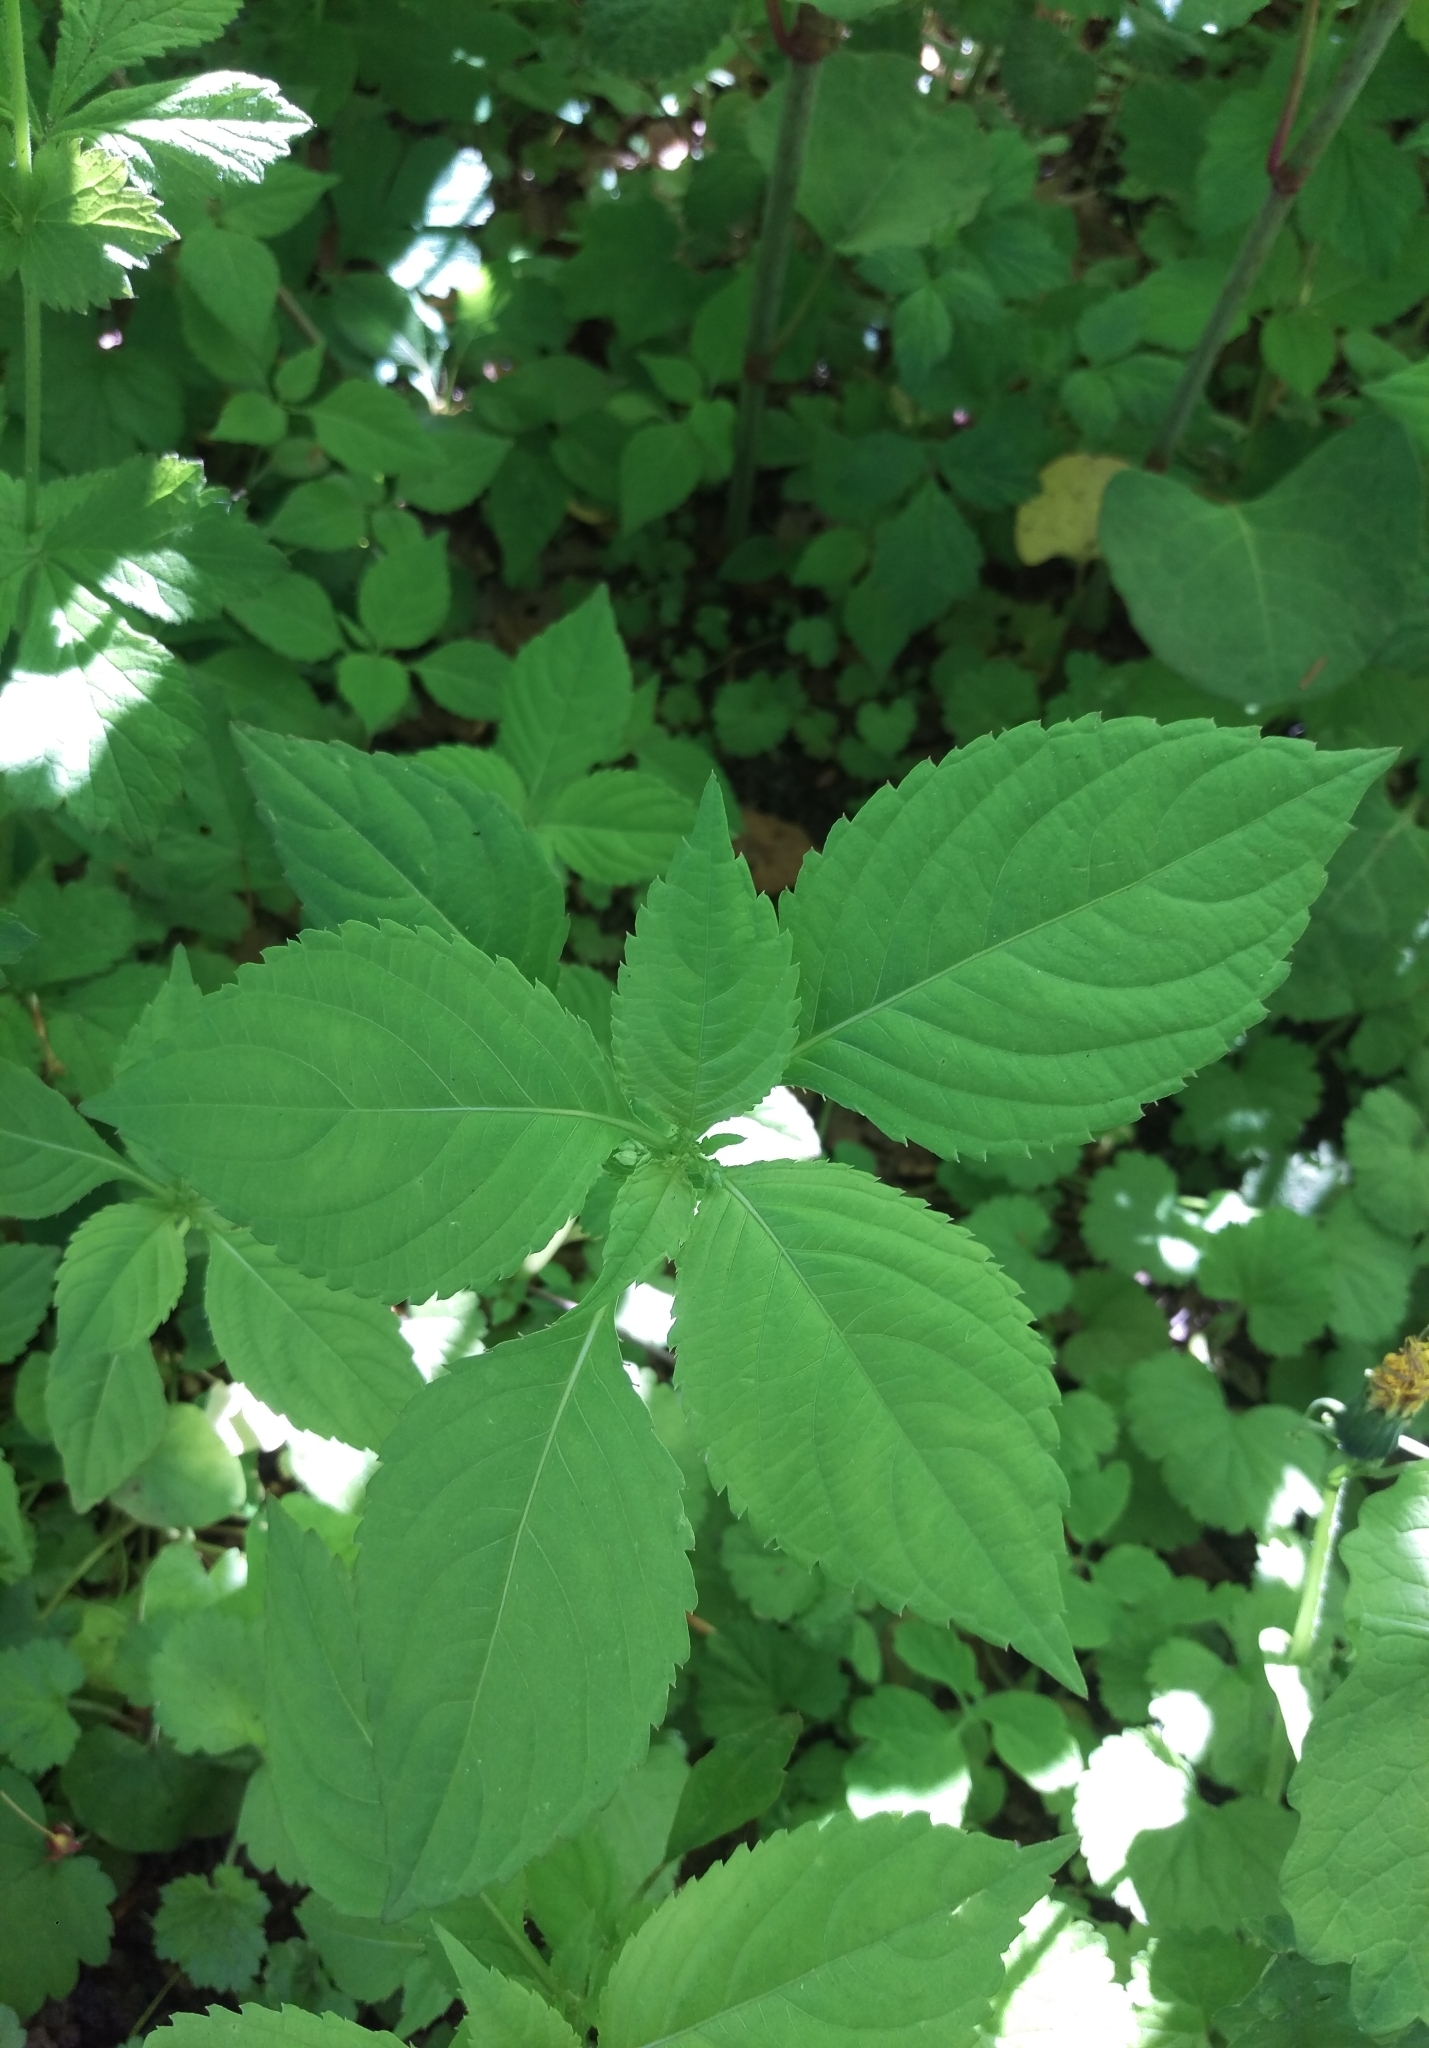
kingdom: Plantae
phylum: Tracheophyta
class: Magnoliopsida
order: Ericales
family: Balsaminaceae
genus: Impatiens
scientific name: Impatiens parviflora
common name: Small balsam
